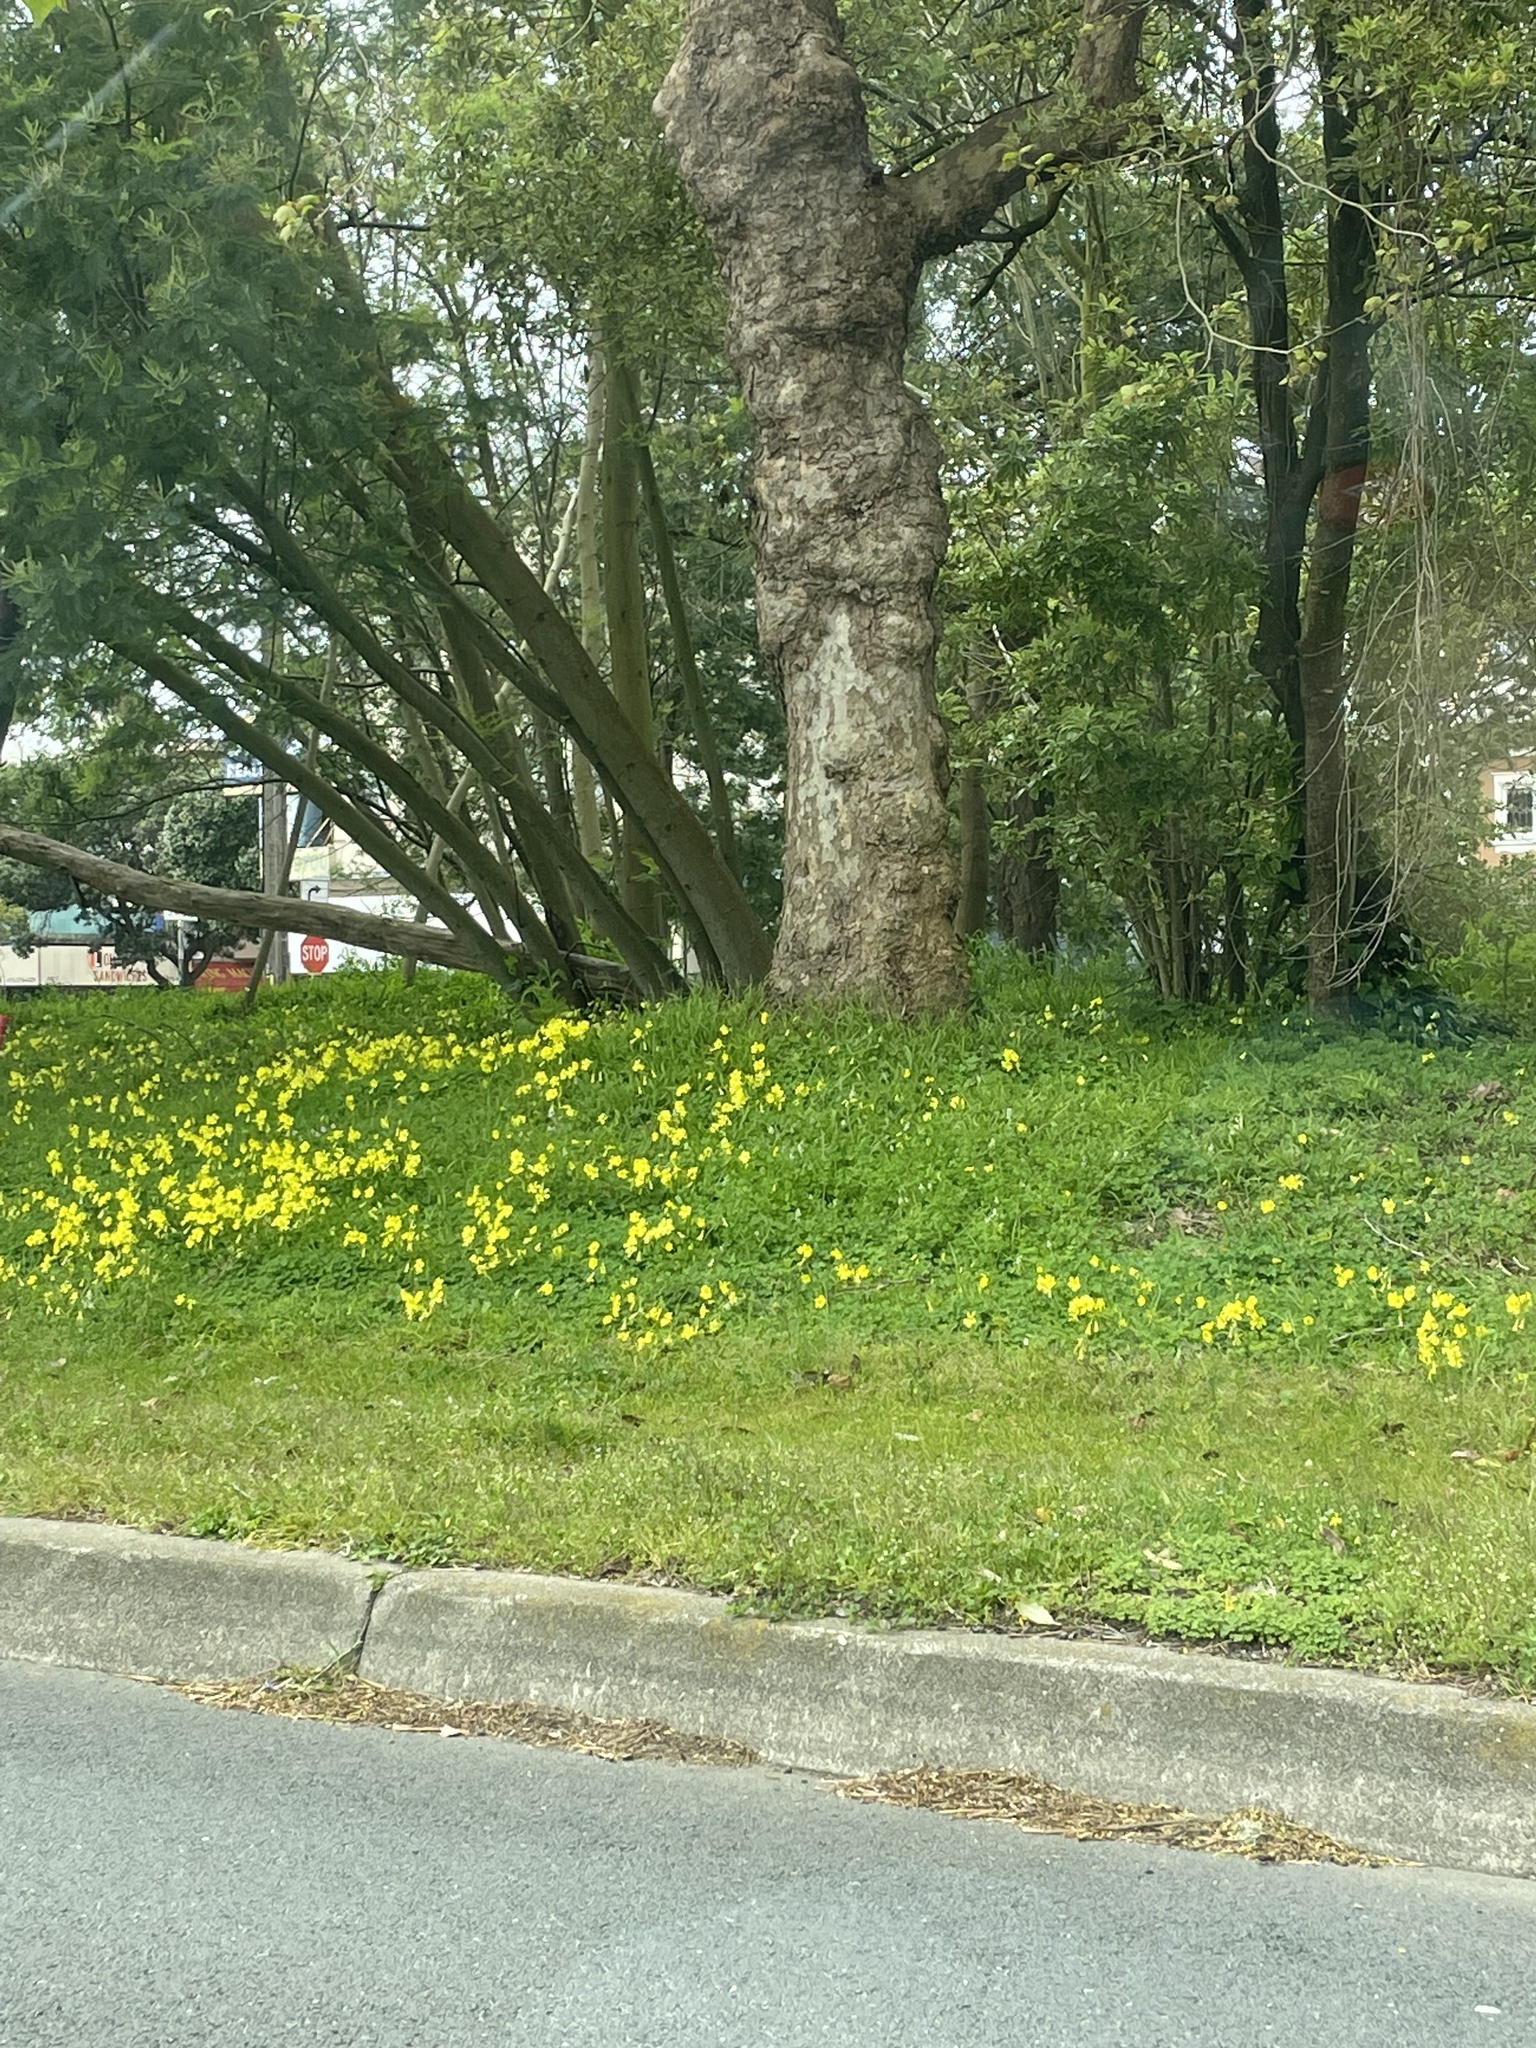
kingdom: Plantae
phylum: Tracheophyta
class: Magnoliopsida
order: Oxalidales
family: Oxalidaceae
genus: Oxalis
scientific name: Oxalis pes-caprae
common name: Bermuda-buttercup
